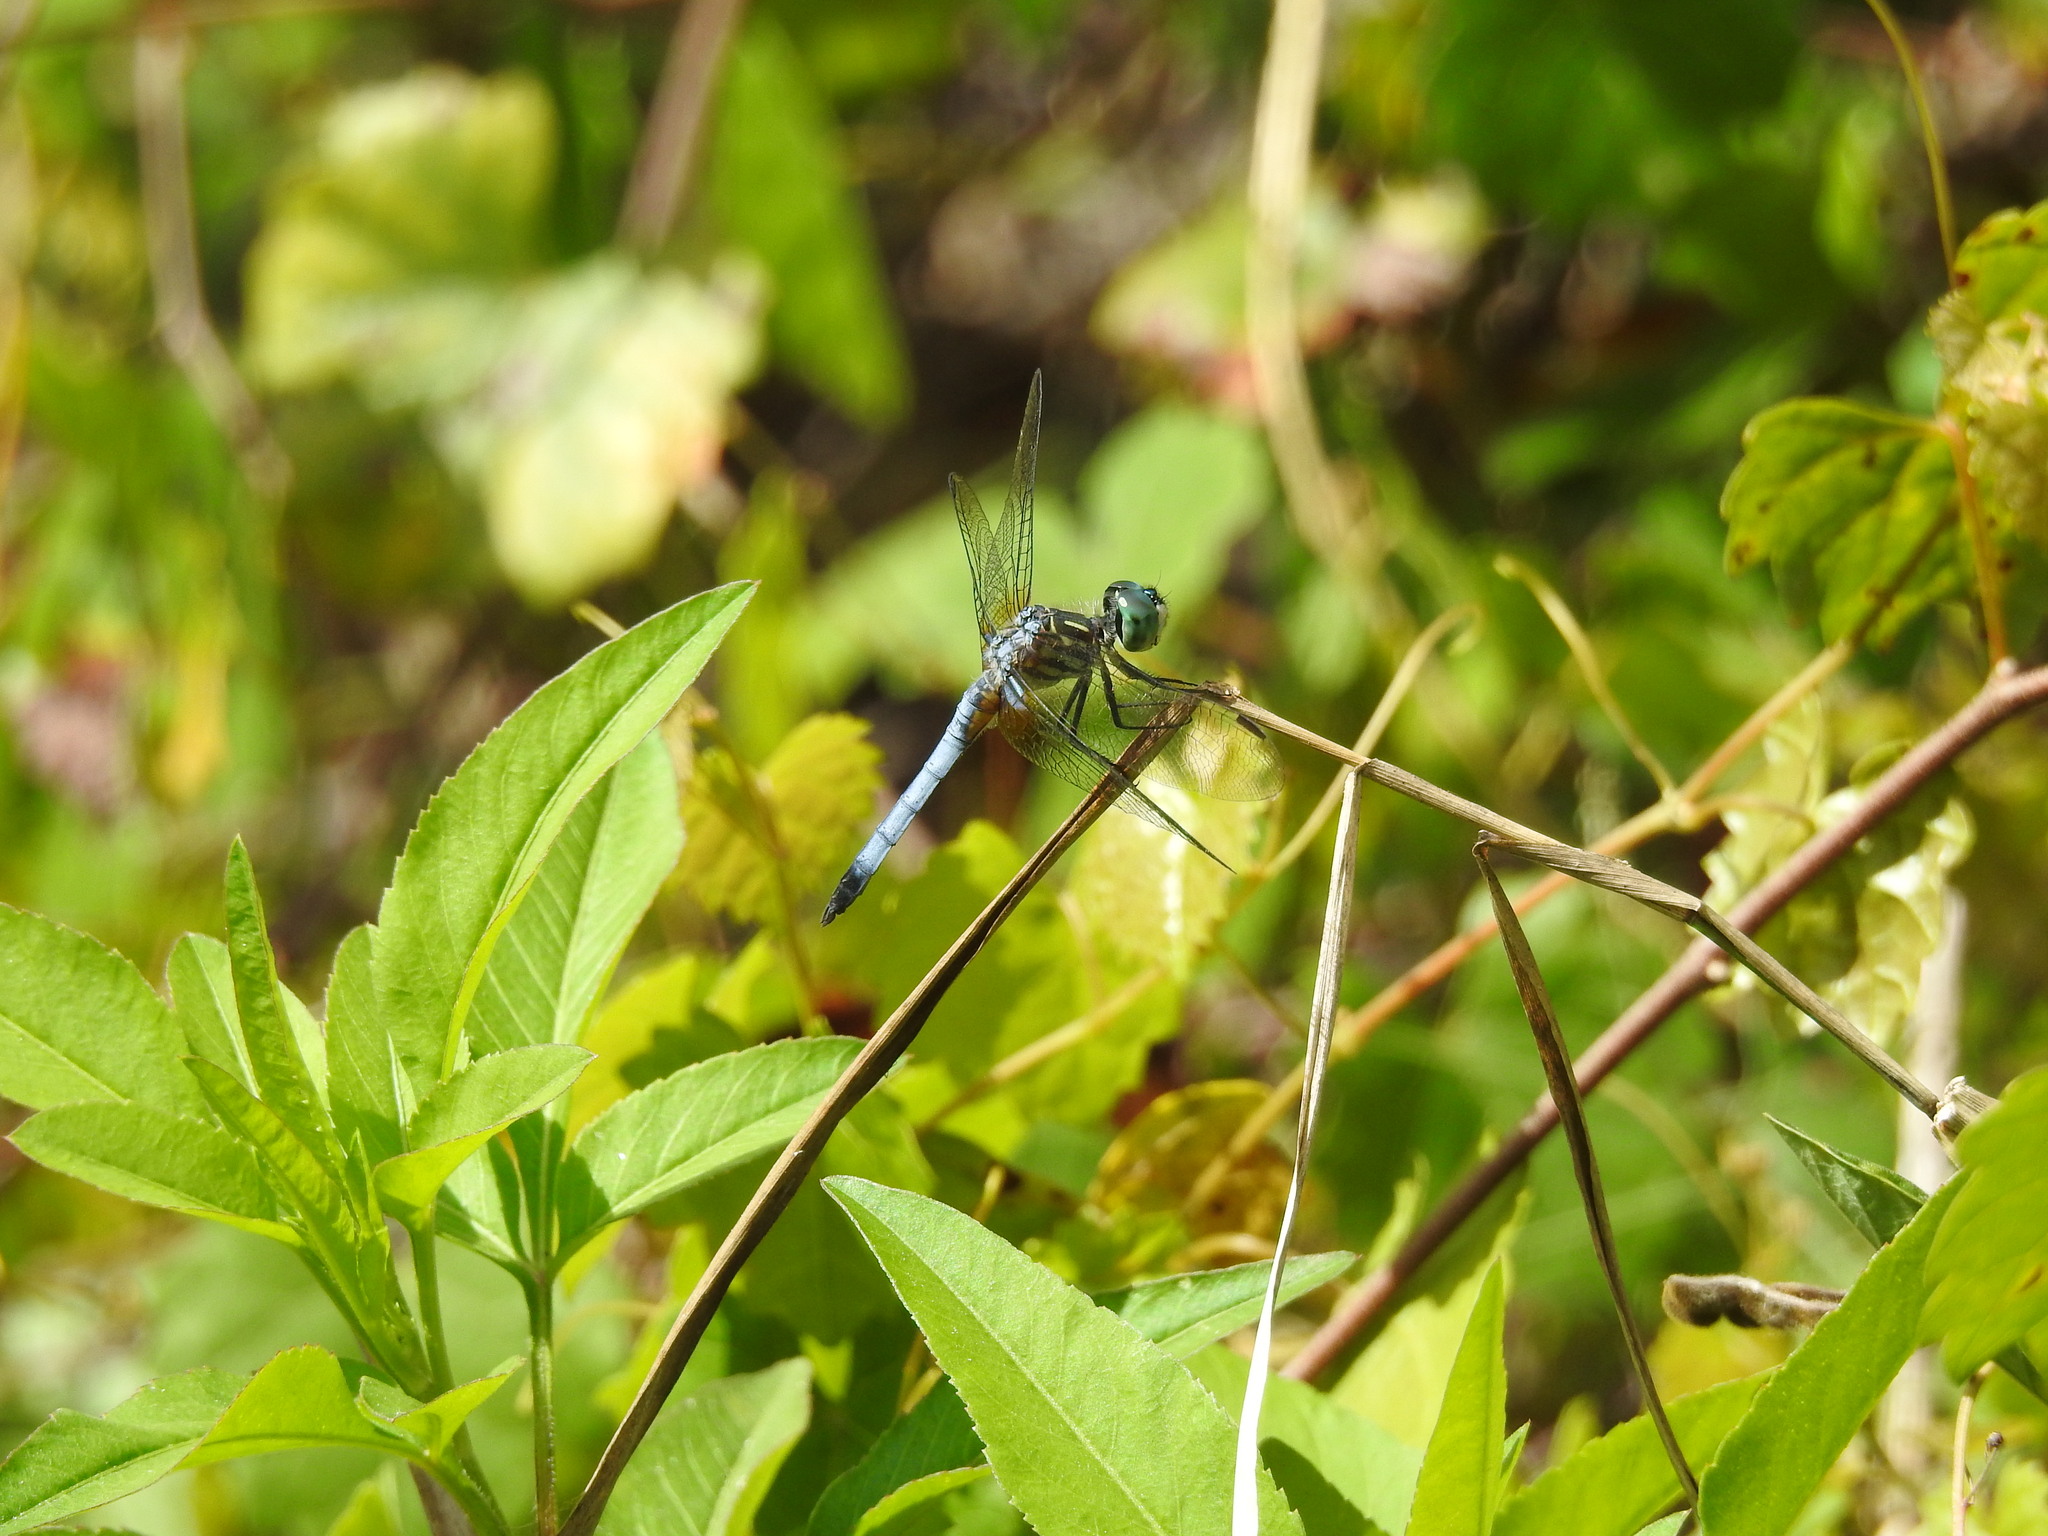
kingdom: Animalia
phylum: Arthropoda
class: Insecta
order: Odonata
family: Libellulidae
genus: Pachydiplax
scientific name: Pachydiplax longipennis
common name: Blue dasher
